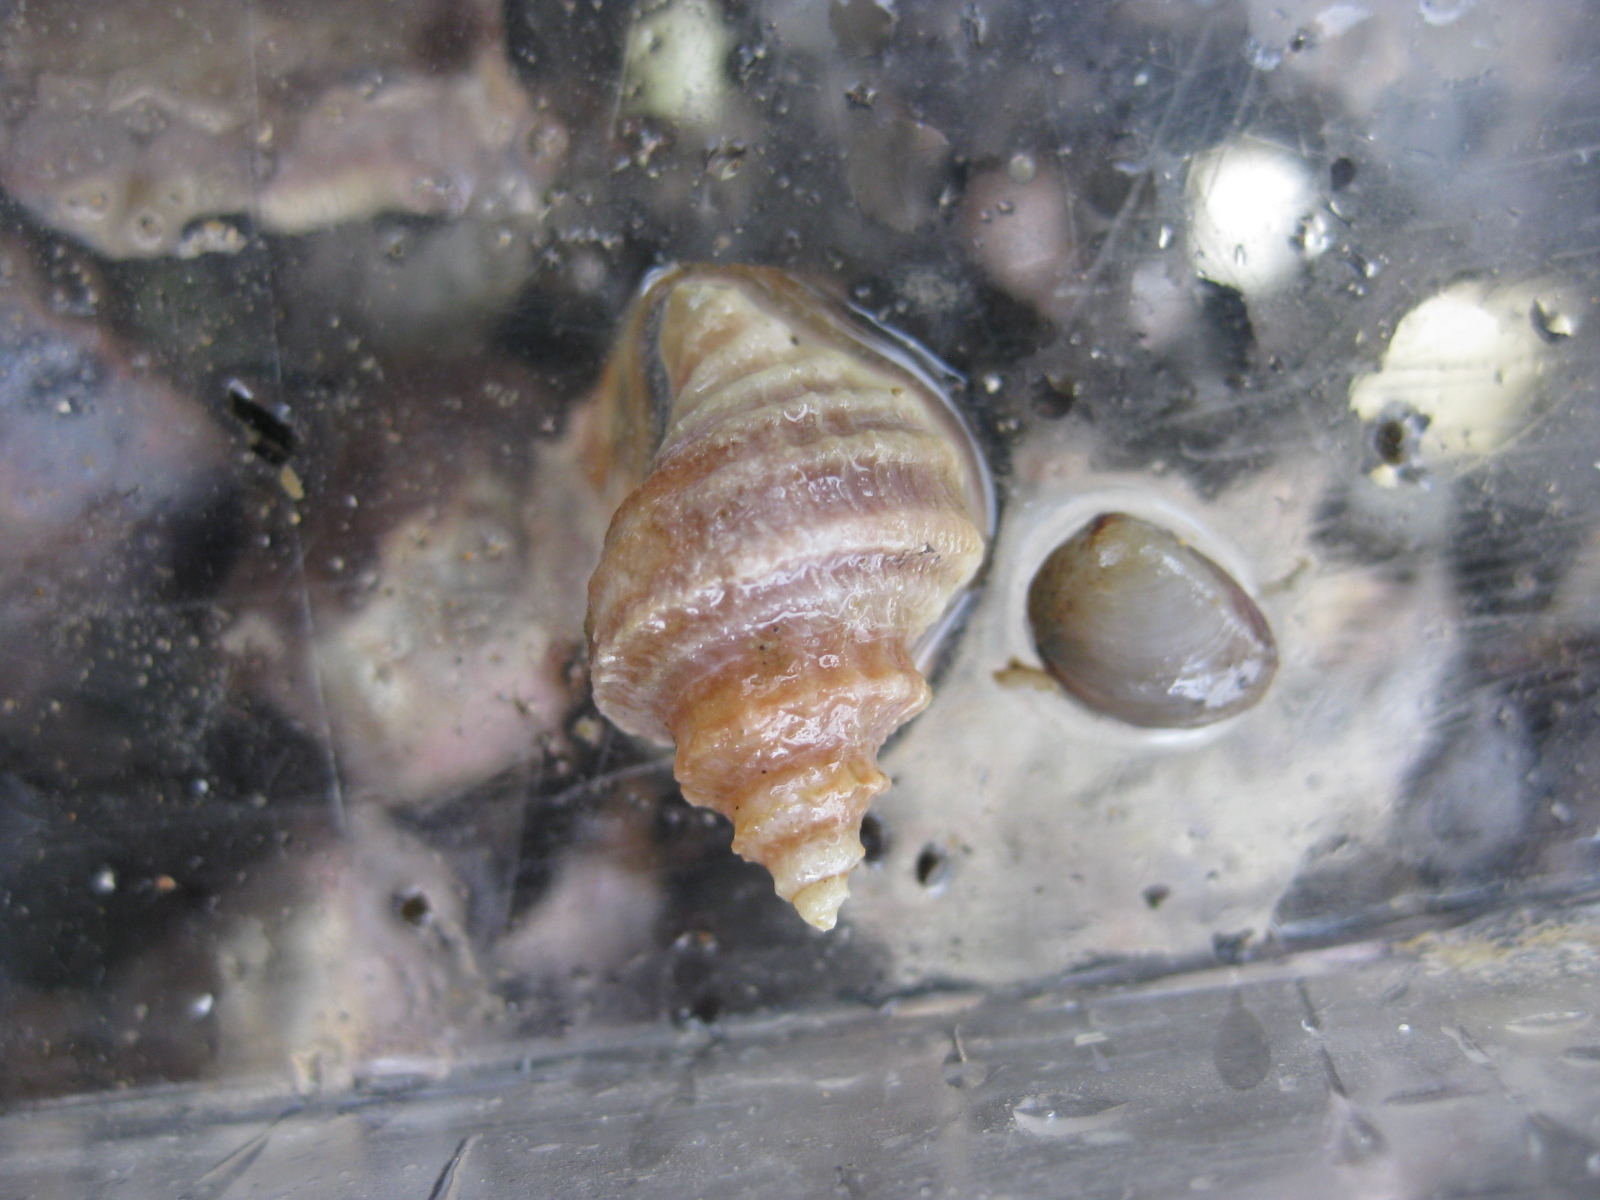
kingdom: Animalia
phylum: Mollusca
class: Gastropoda
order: Neogastropoda
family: Muricidae
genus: Paratrophon
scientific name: Paratrophon quoyi
